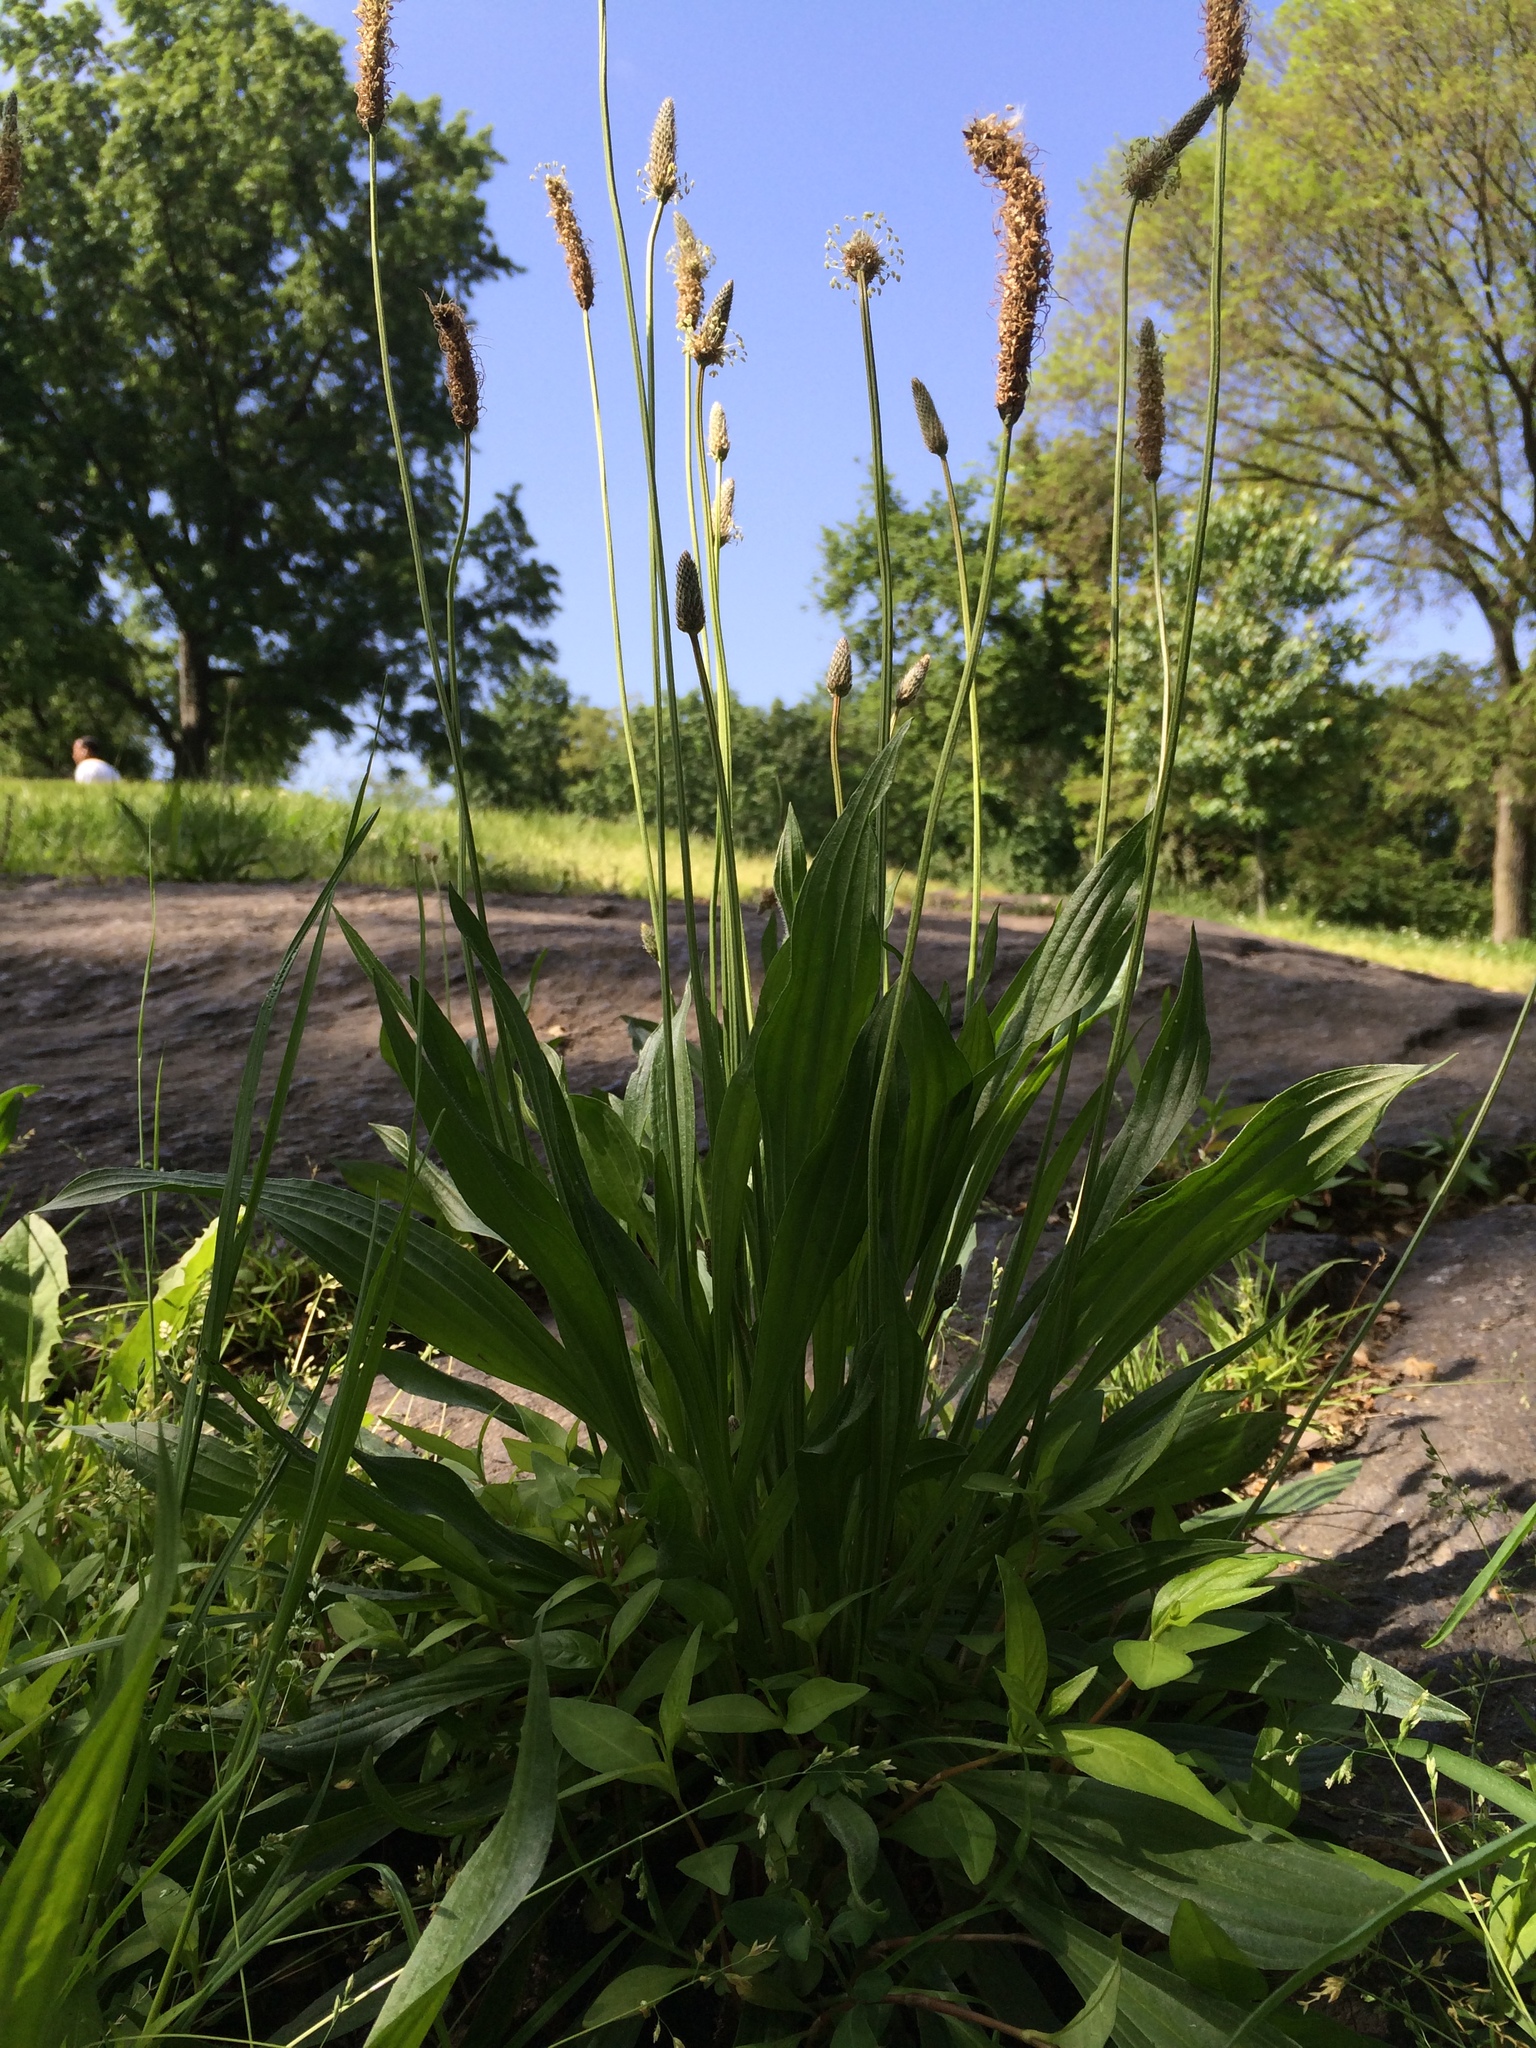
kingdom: Plantae
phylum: Tracheophyta
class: Magnoliopsida
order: Lamiales
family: Plantaginaceae
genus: Plantago
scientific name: Plantago lanceolata
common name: Ribwort plantain
